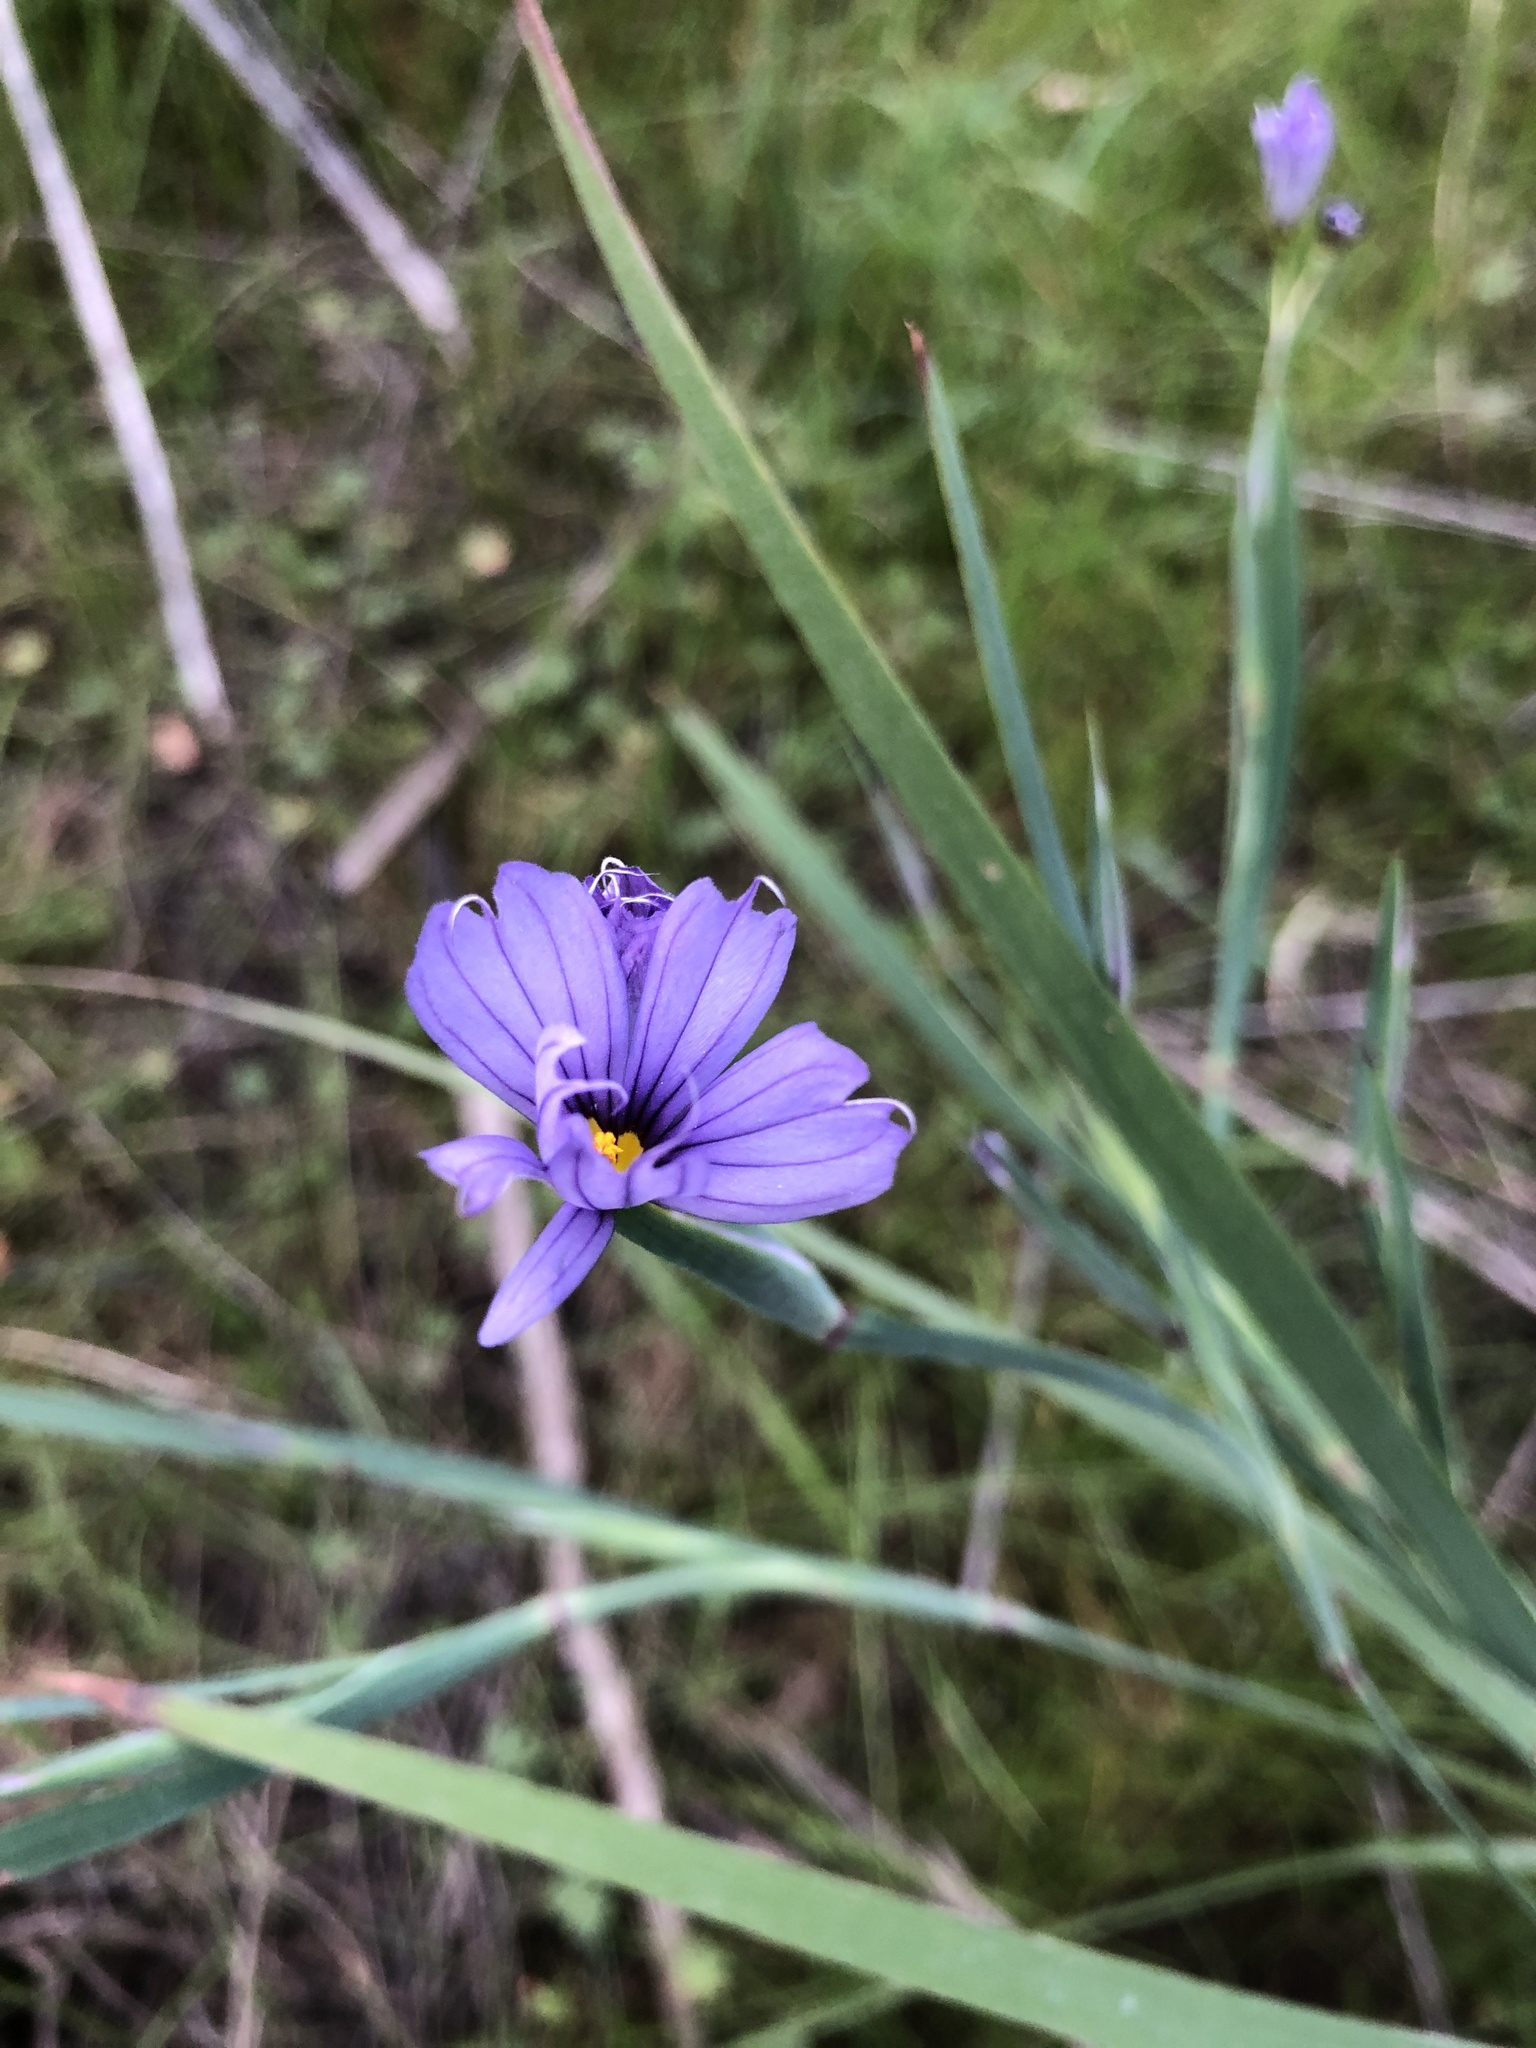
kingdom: Plantae
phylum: Tracheophyta
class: Liliopsida
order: Asparagales
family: Iridaceae
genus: Sisyrinchium
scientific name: Sisyrinchium bellum
